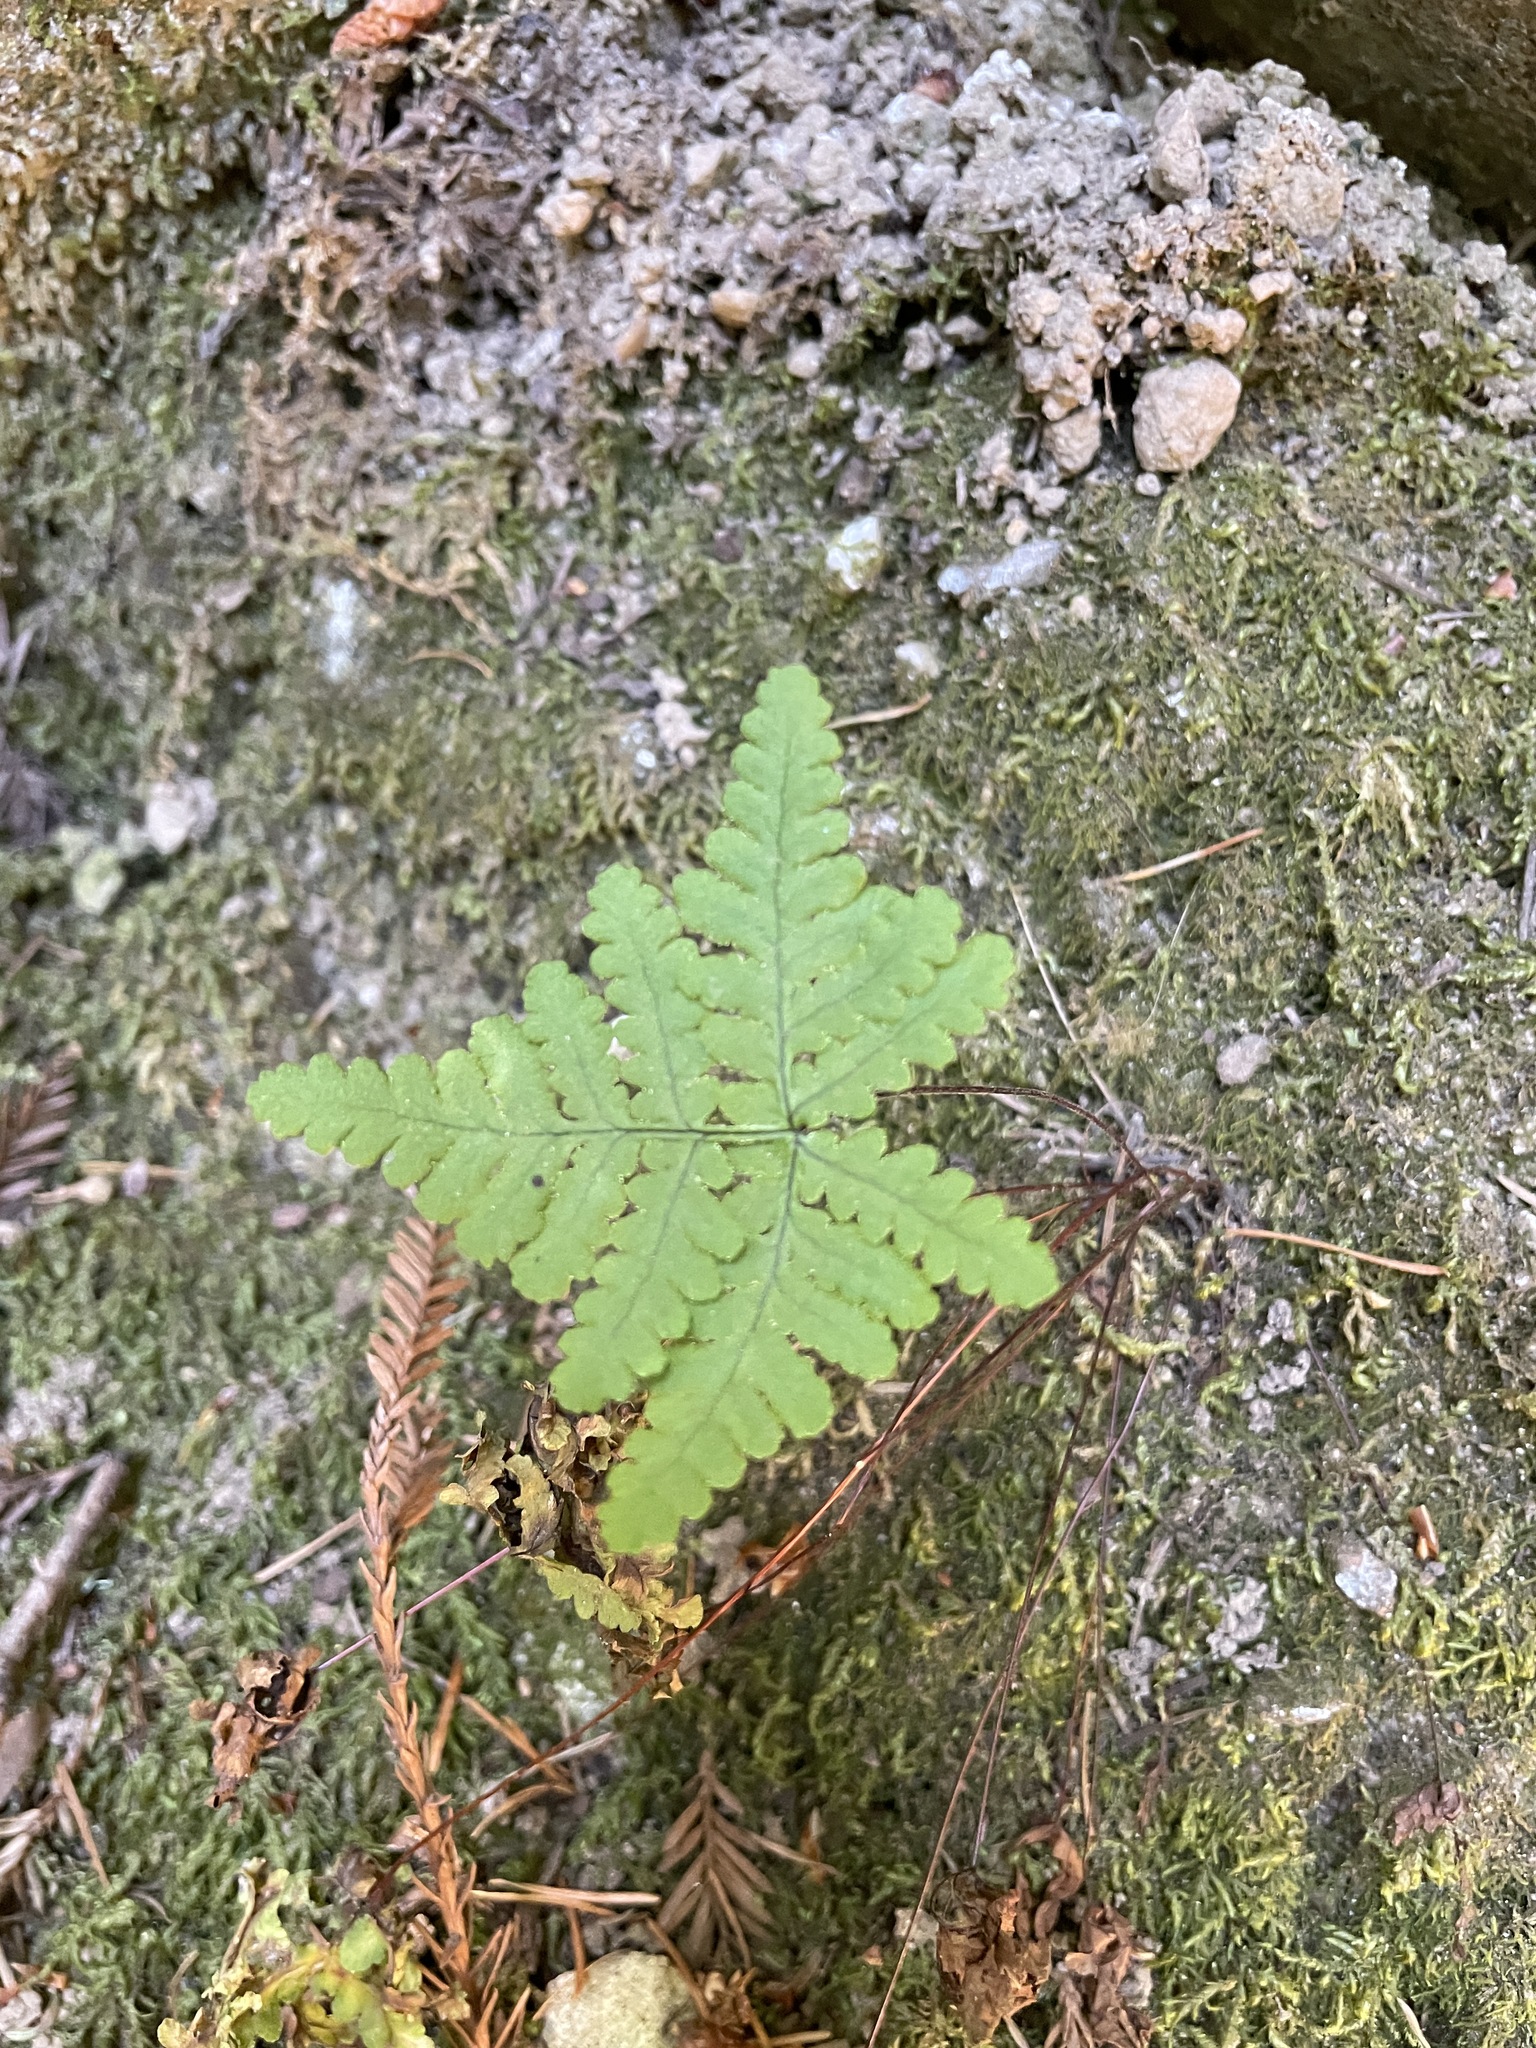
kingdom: Plantae
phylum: Tracheophyta
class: Polypodiopsida
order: Polypodiales
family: Pteridaceae
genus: Pentagramma
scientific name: Pentagramma triangularis
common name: Gold fern
